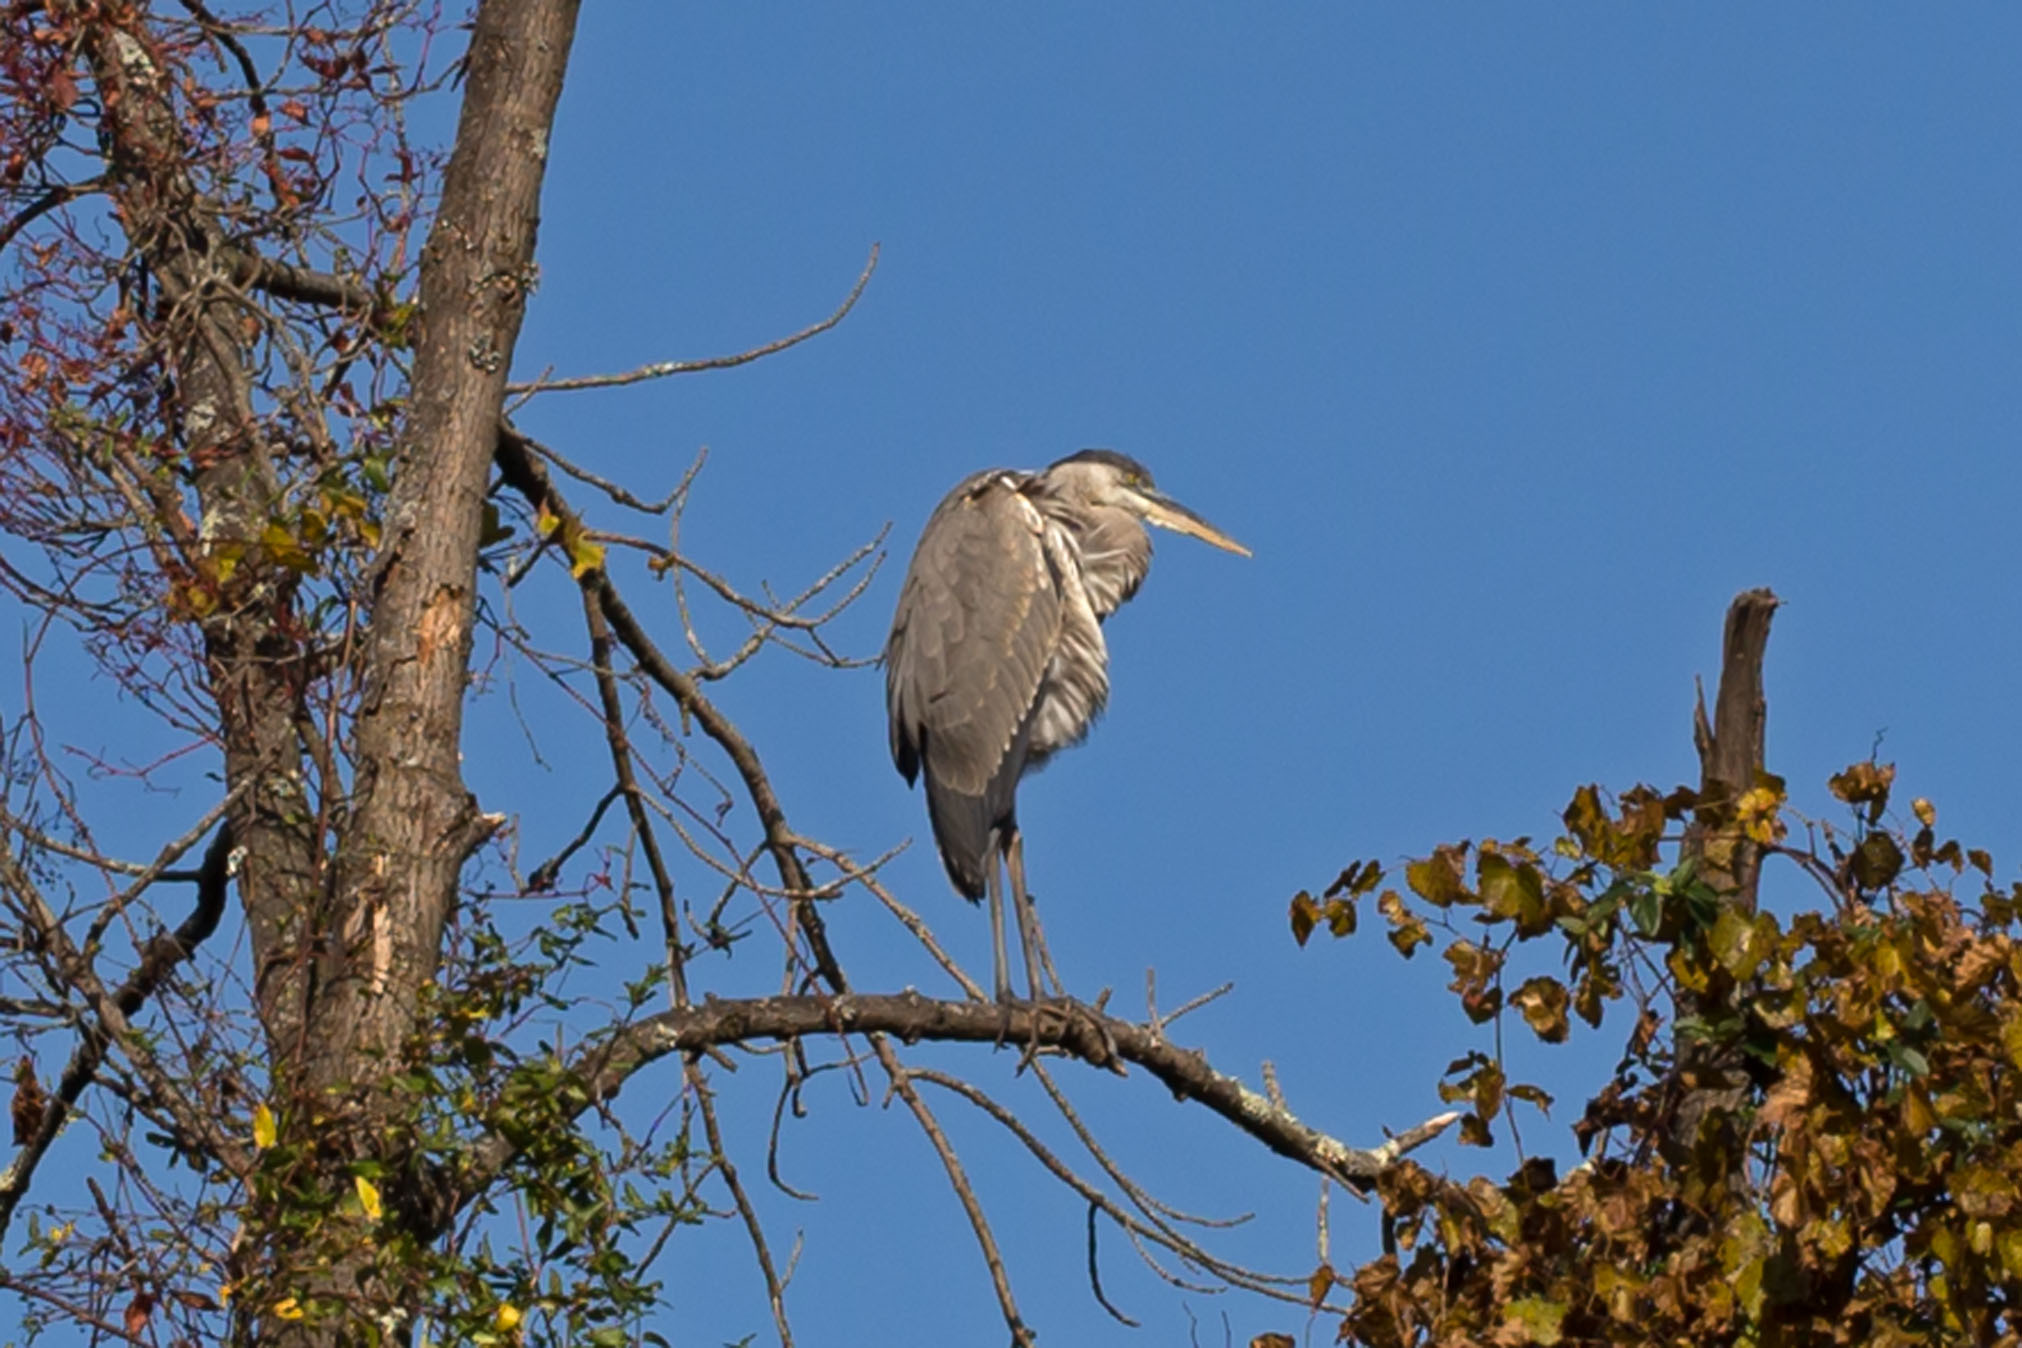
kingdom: Animalia
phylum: Chordata
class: Aves
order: Pelecaniformes
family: Ardeidae
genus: Ardea
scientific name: Ardea herodias
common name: Great blue heron
